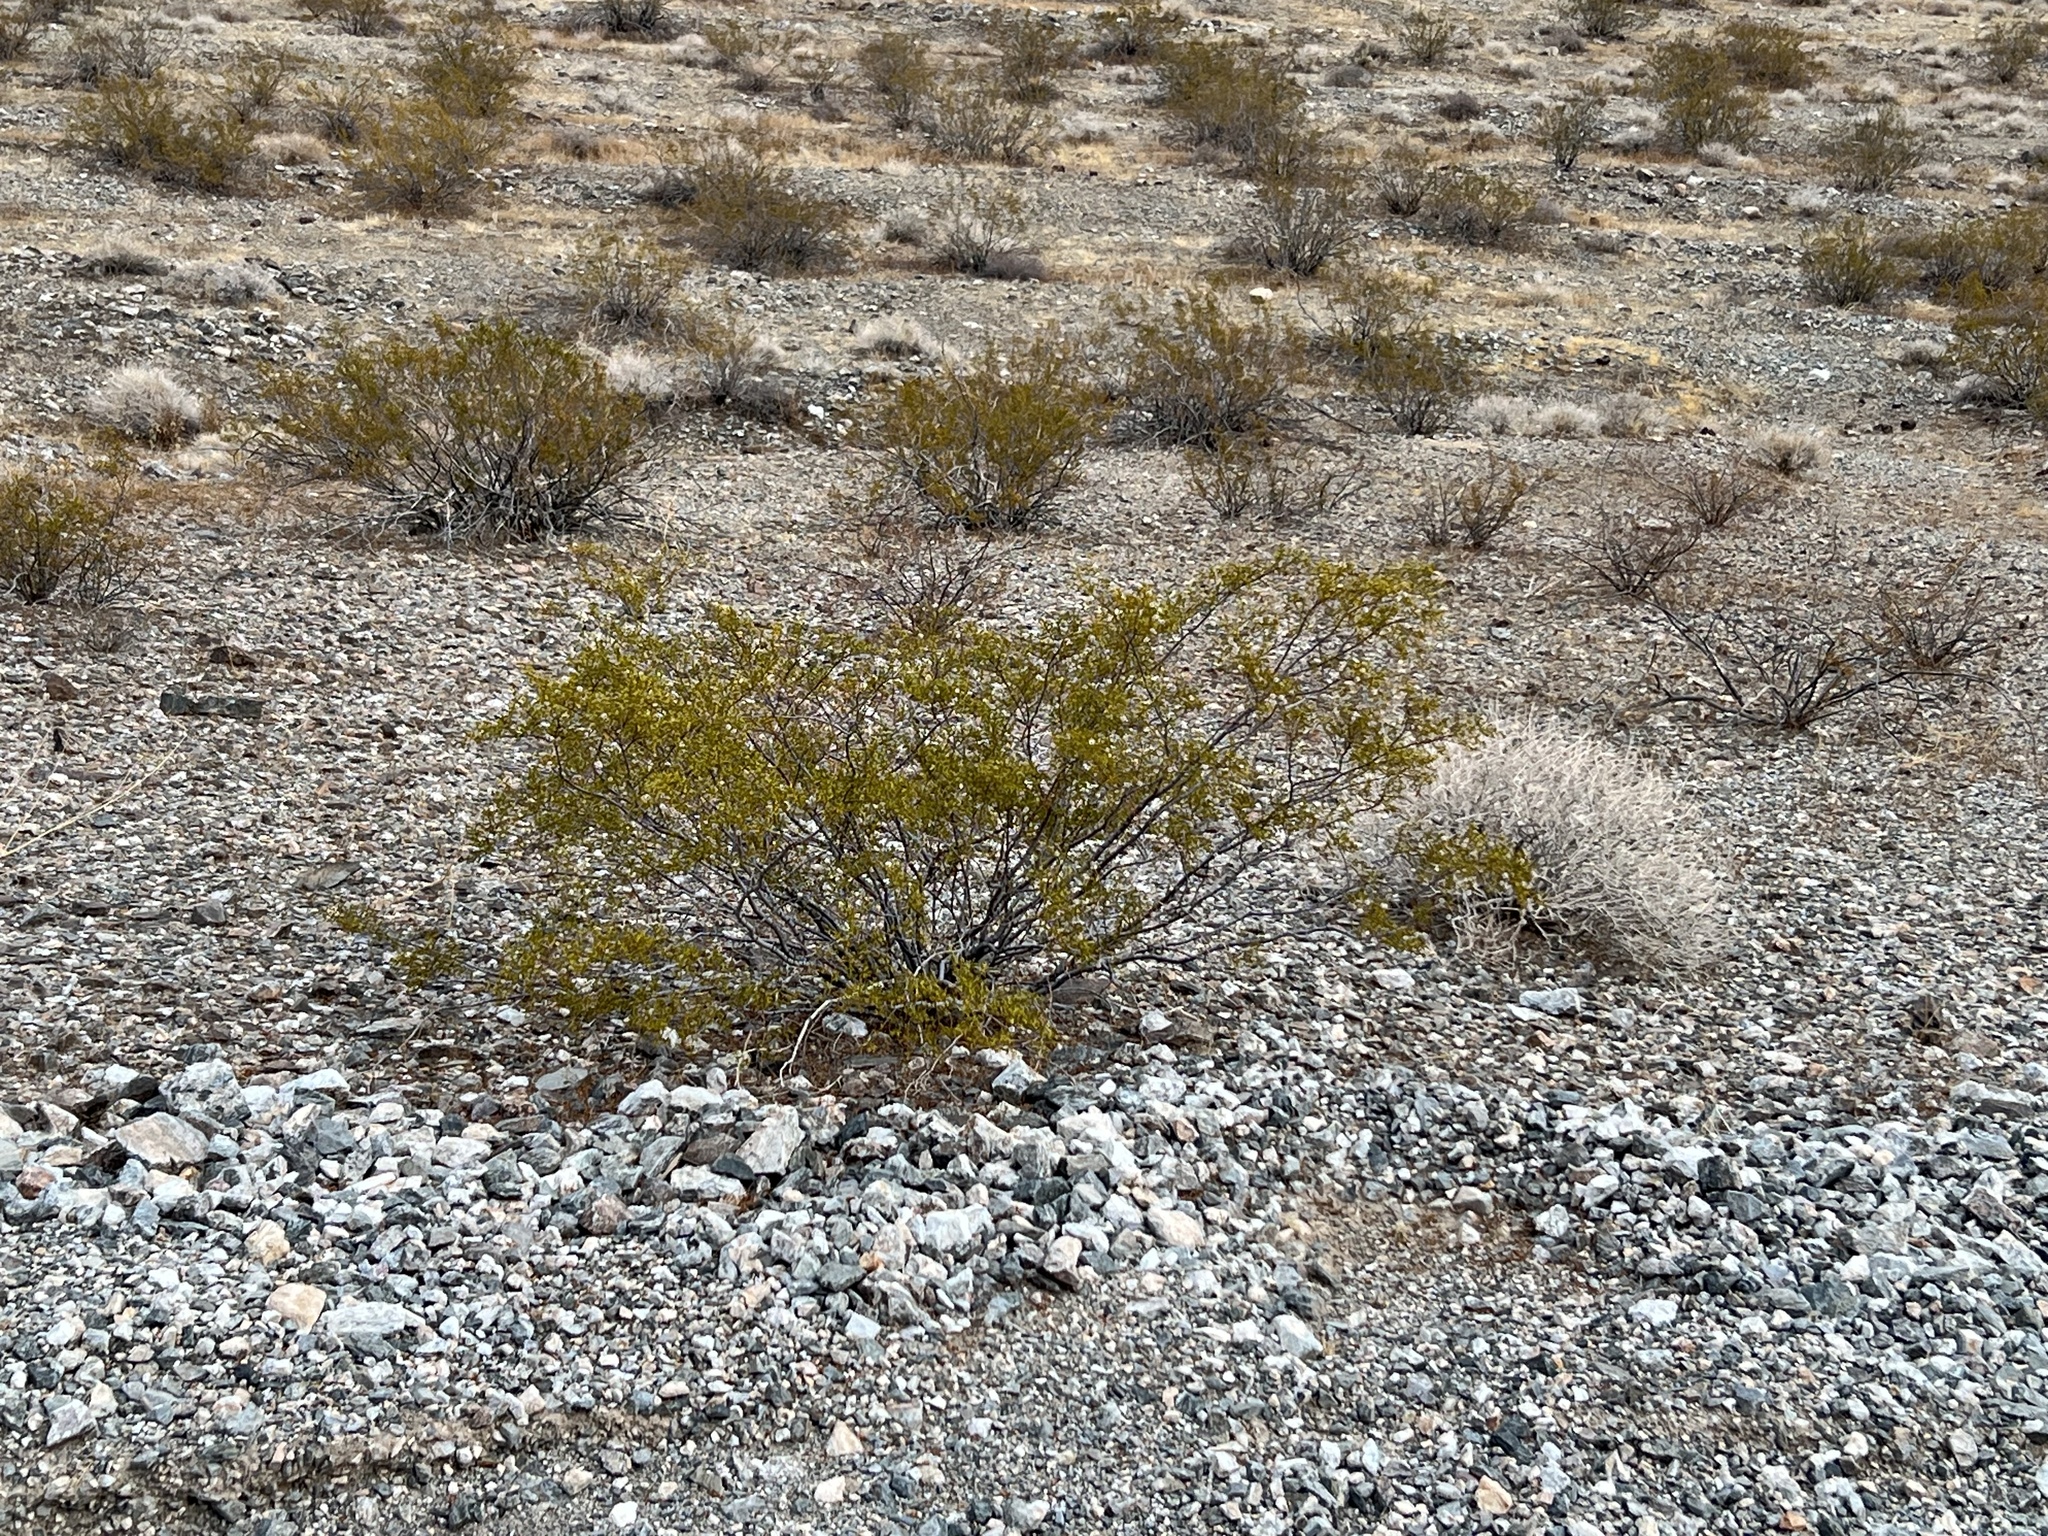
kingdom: Plantae
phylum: Tracheophyta
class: Magnoliopsida
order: Zygophyllales
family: Zygophyllaceae
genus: Larrea
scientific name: Larrea tridentata
